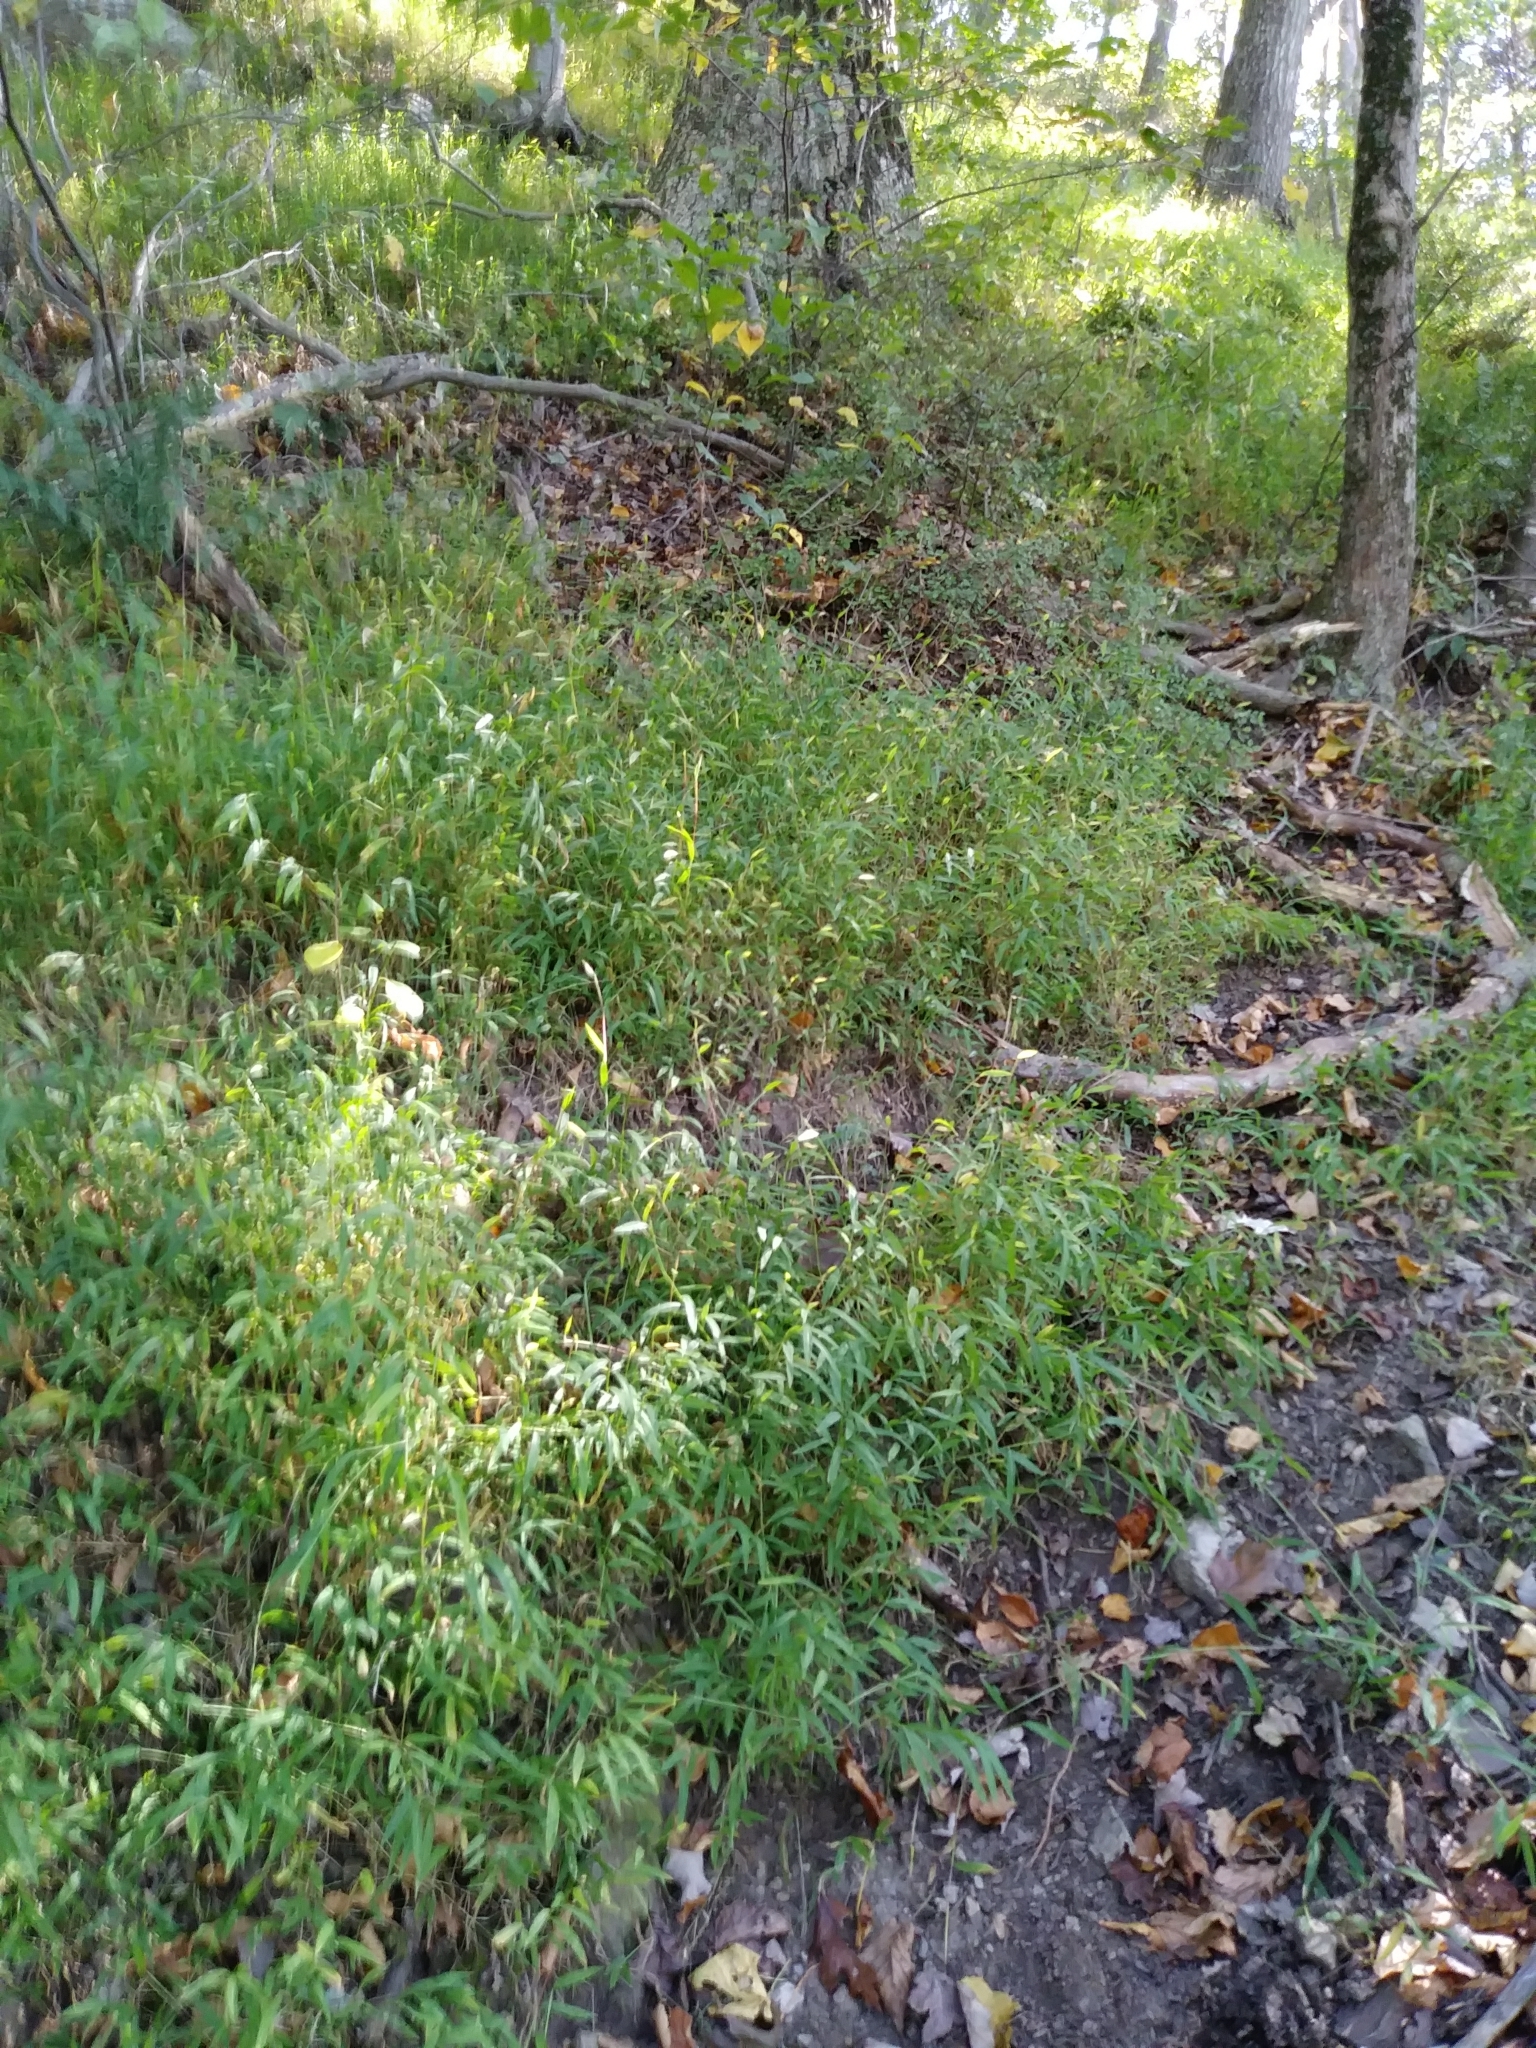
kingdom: Plantae
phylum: Tracheophyta
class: Liliopsida
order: Poales
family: Poaceae
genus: Microstegium
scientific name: Microstegium vimineum
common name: Japanese stiltgrass
